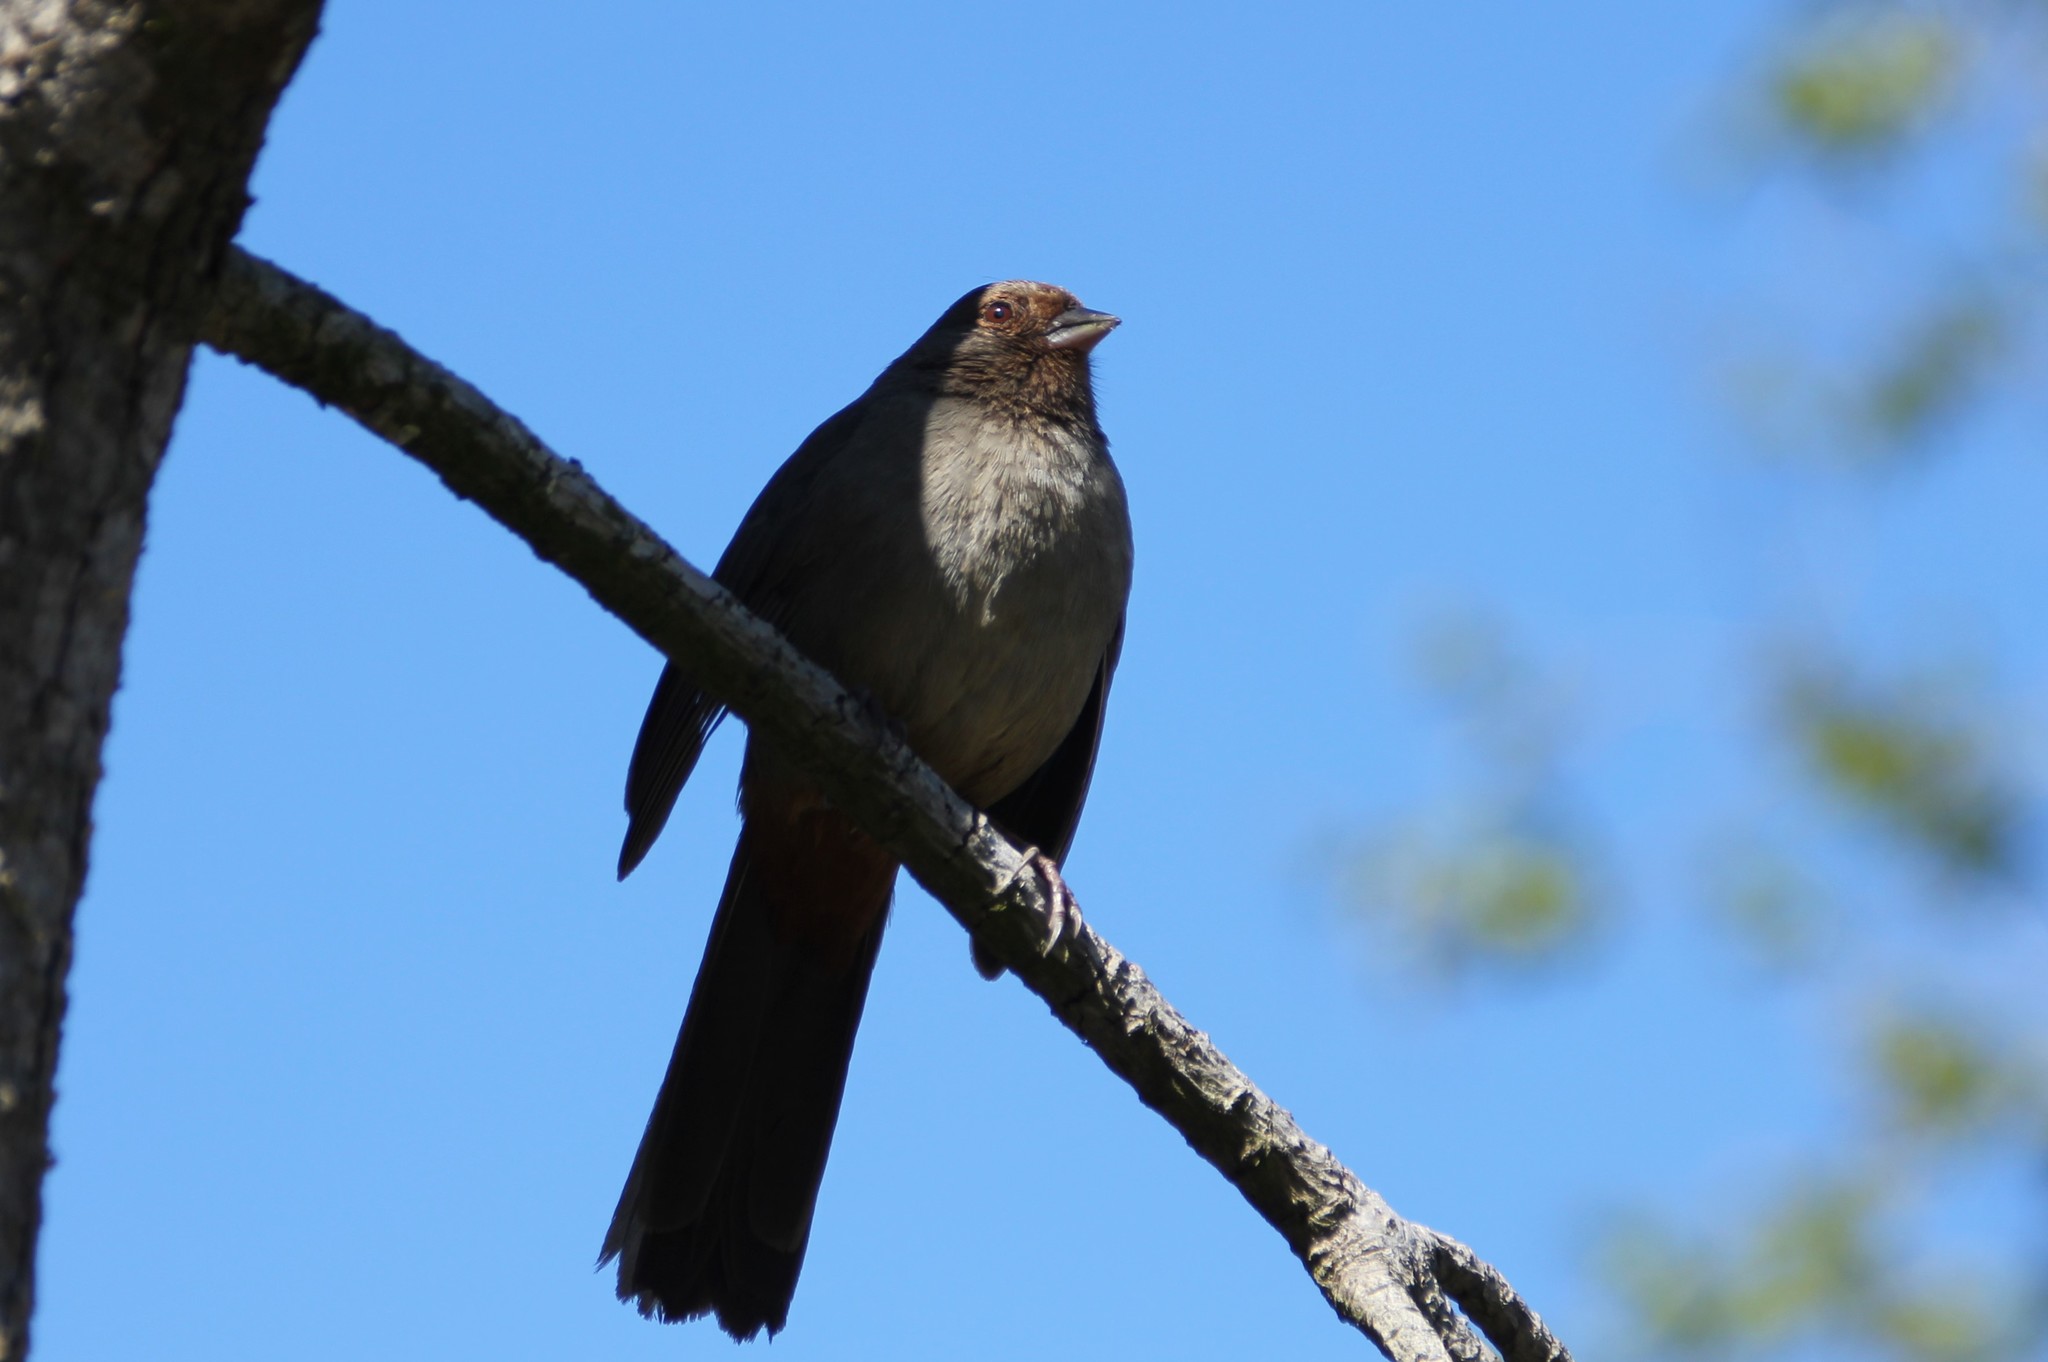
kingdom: Animalia
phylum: Chordata
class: Aves
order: Passeriformes
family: Passerellidae
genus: Melozone
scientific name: Melozone crissalis
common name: California towhee
